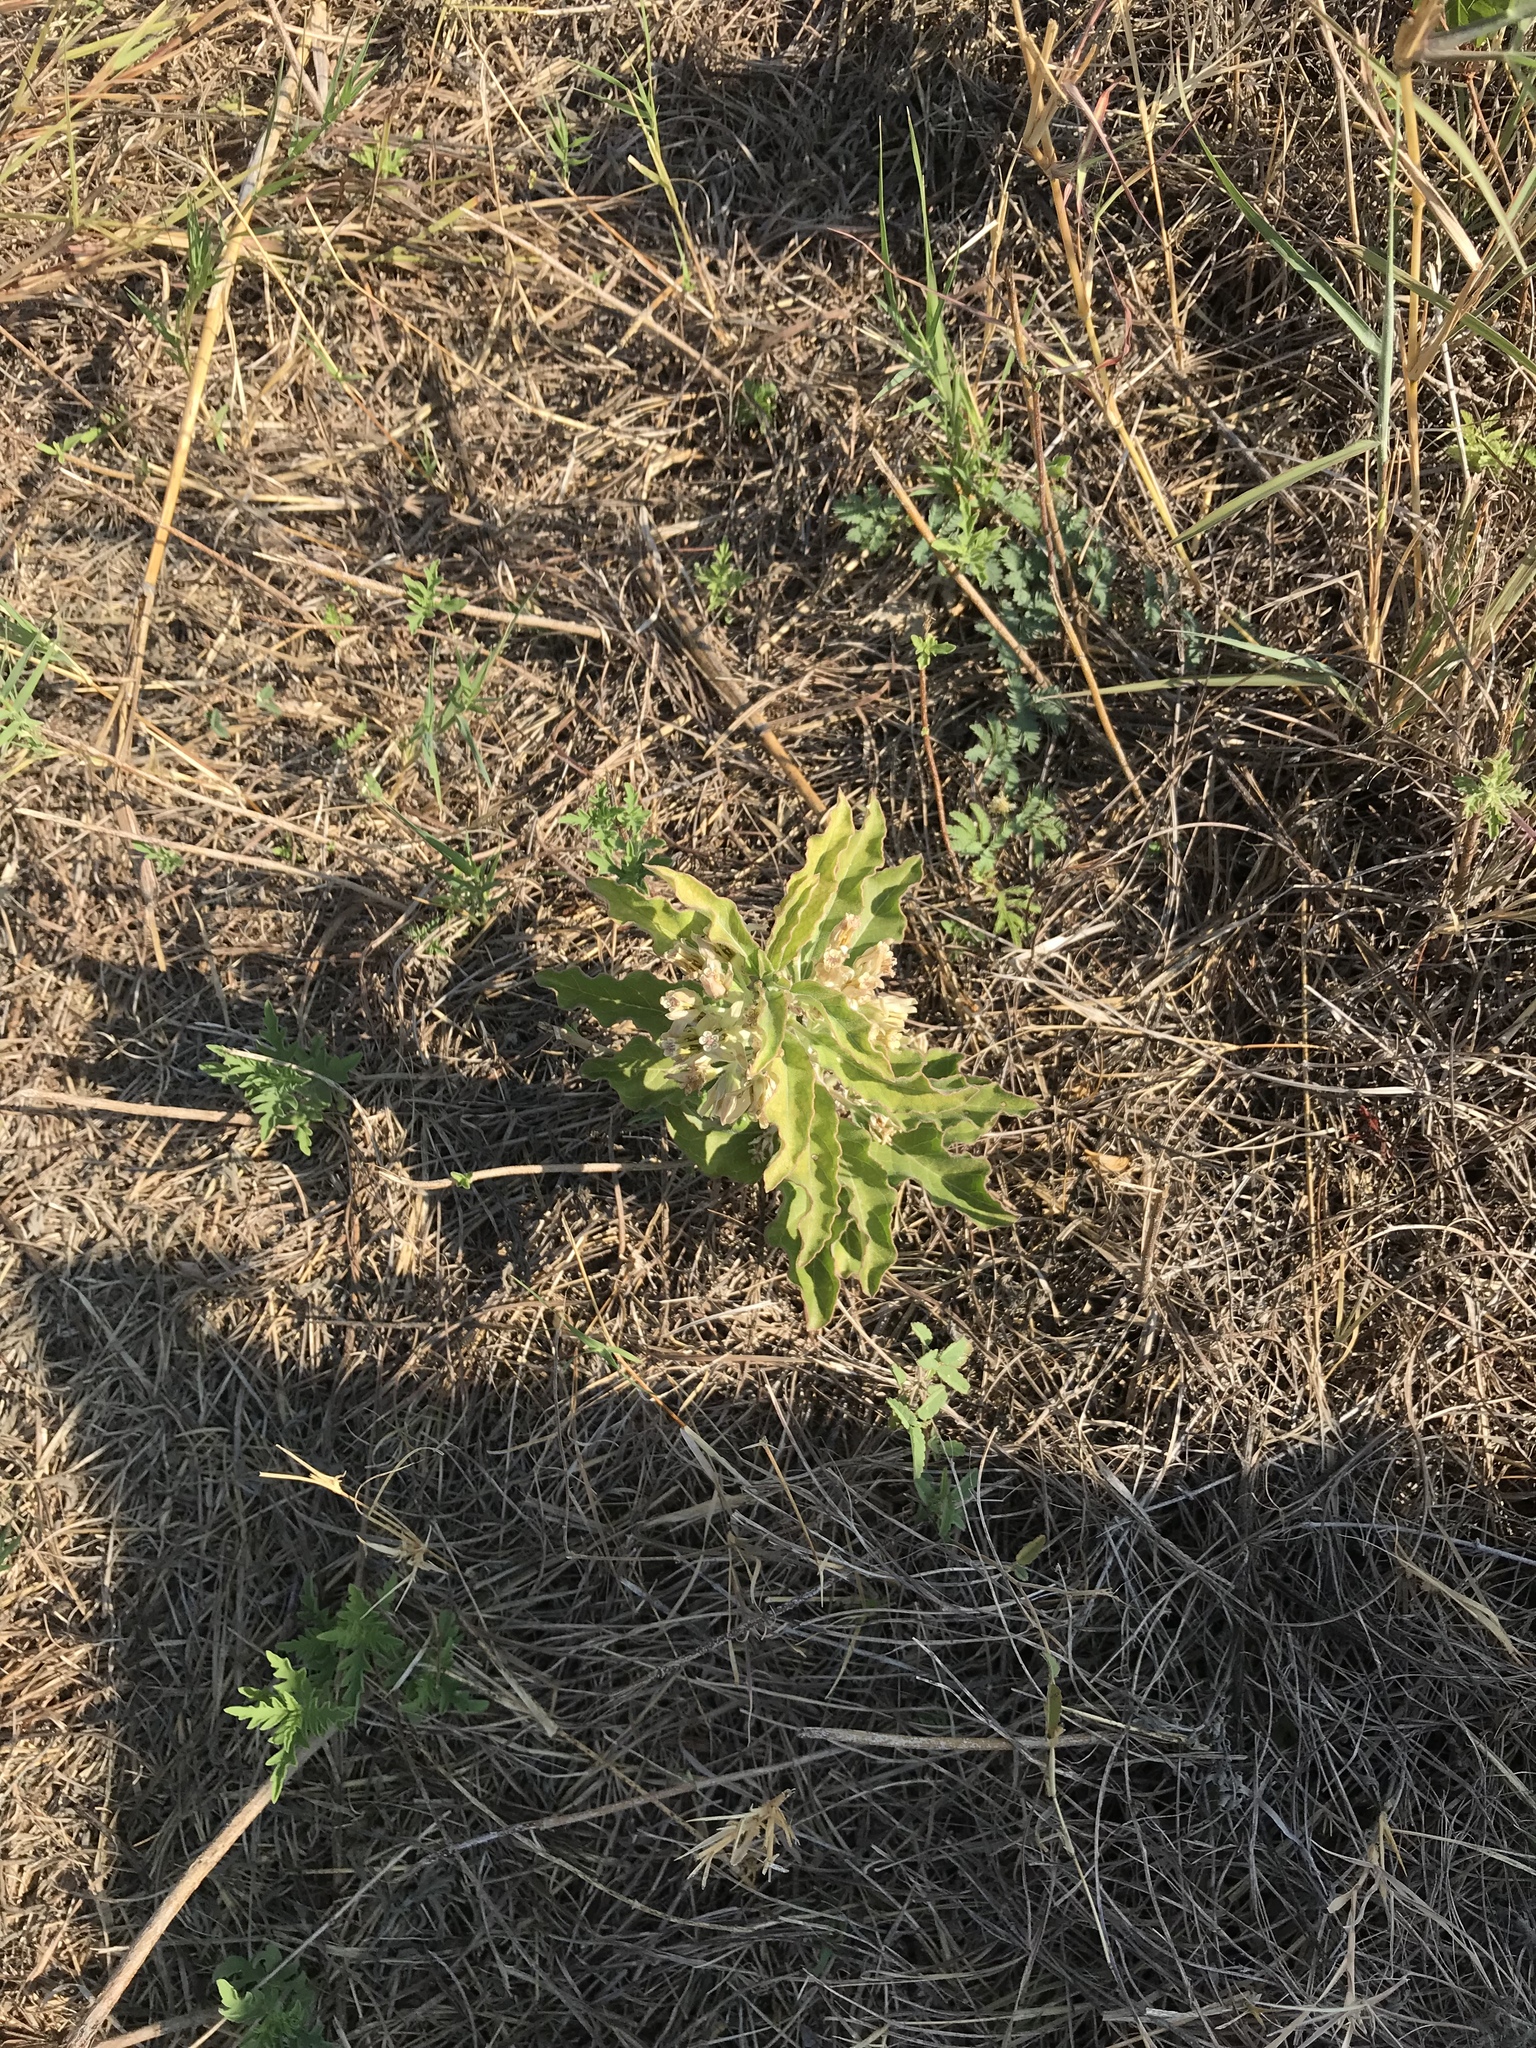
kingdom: Plantae
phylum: Tracheophyta
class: Magnoliopsida
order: Gentianales
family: Apocynaceae
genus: Asclepias
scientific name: Asclepias oenotheroides
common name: Zizotes milkweed
